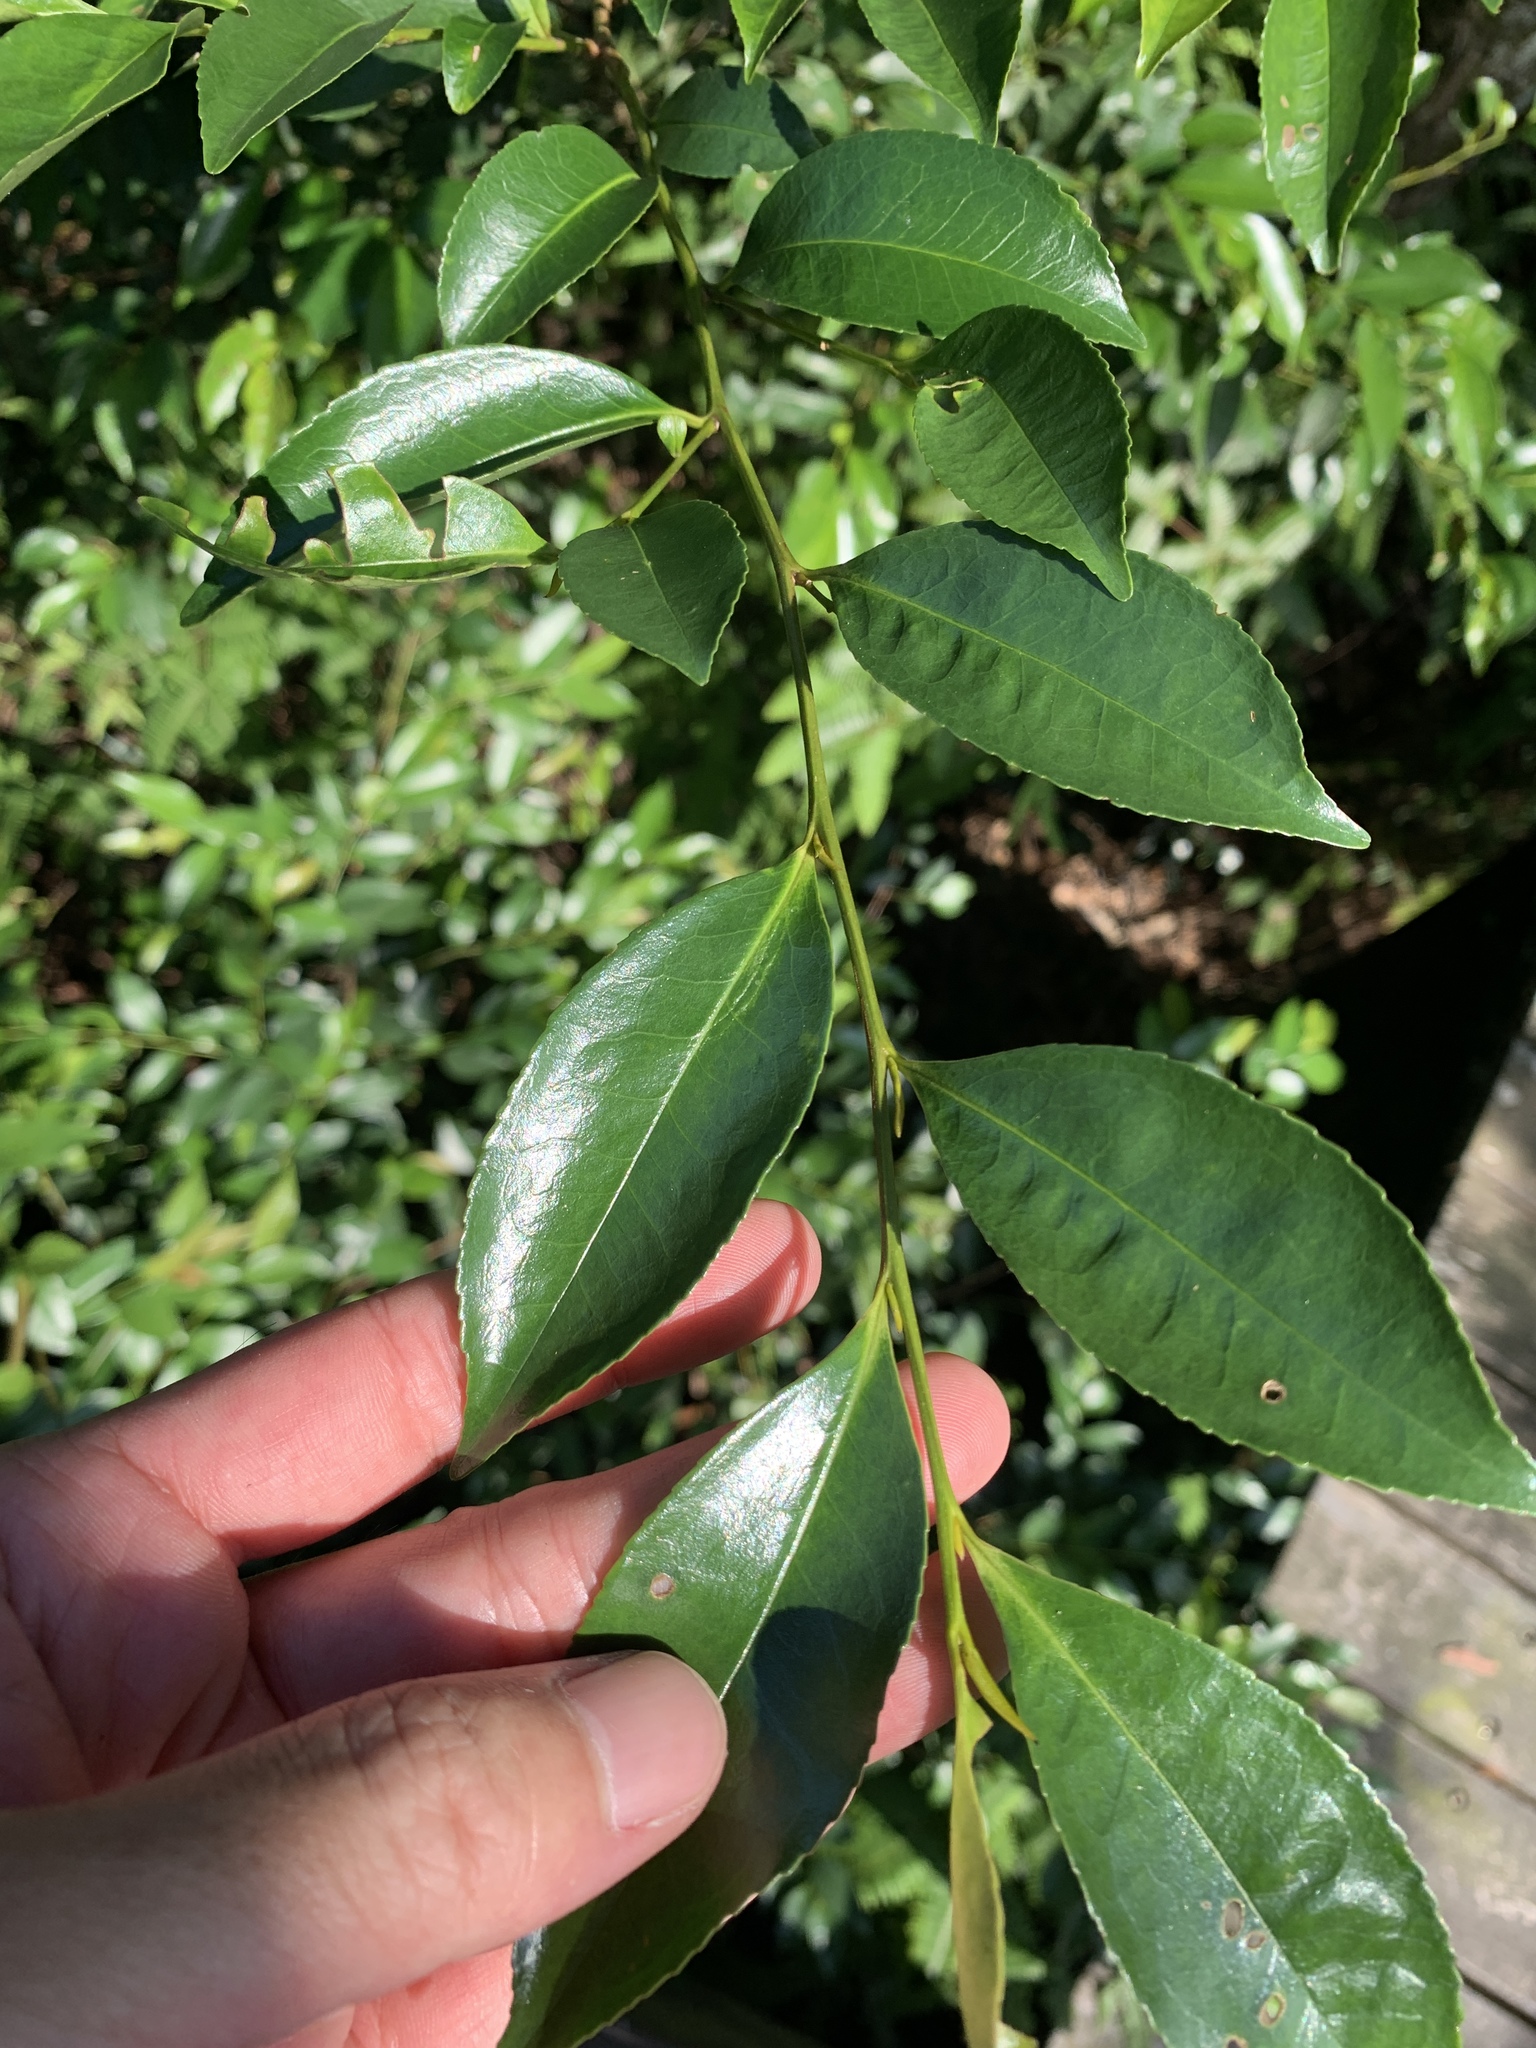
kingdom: Plantae
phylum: Tracheophyta
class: Magnoliopsida
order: Ericales
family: Pentaphylacaceae
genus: Eurya
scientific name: Eurya nitida
